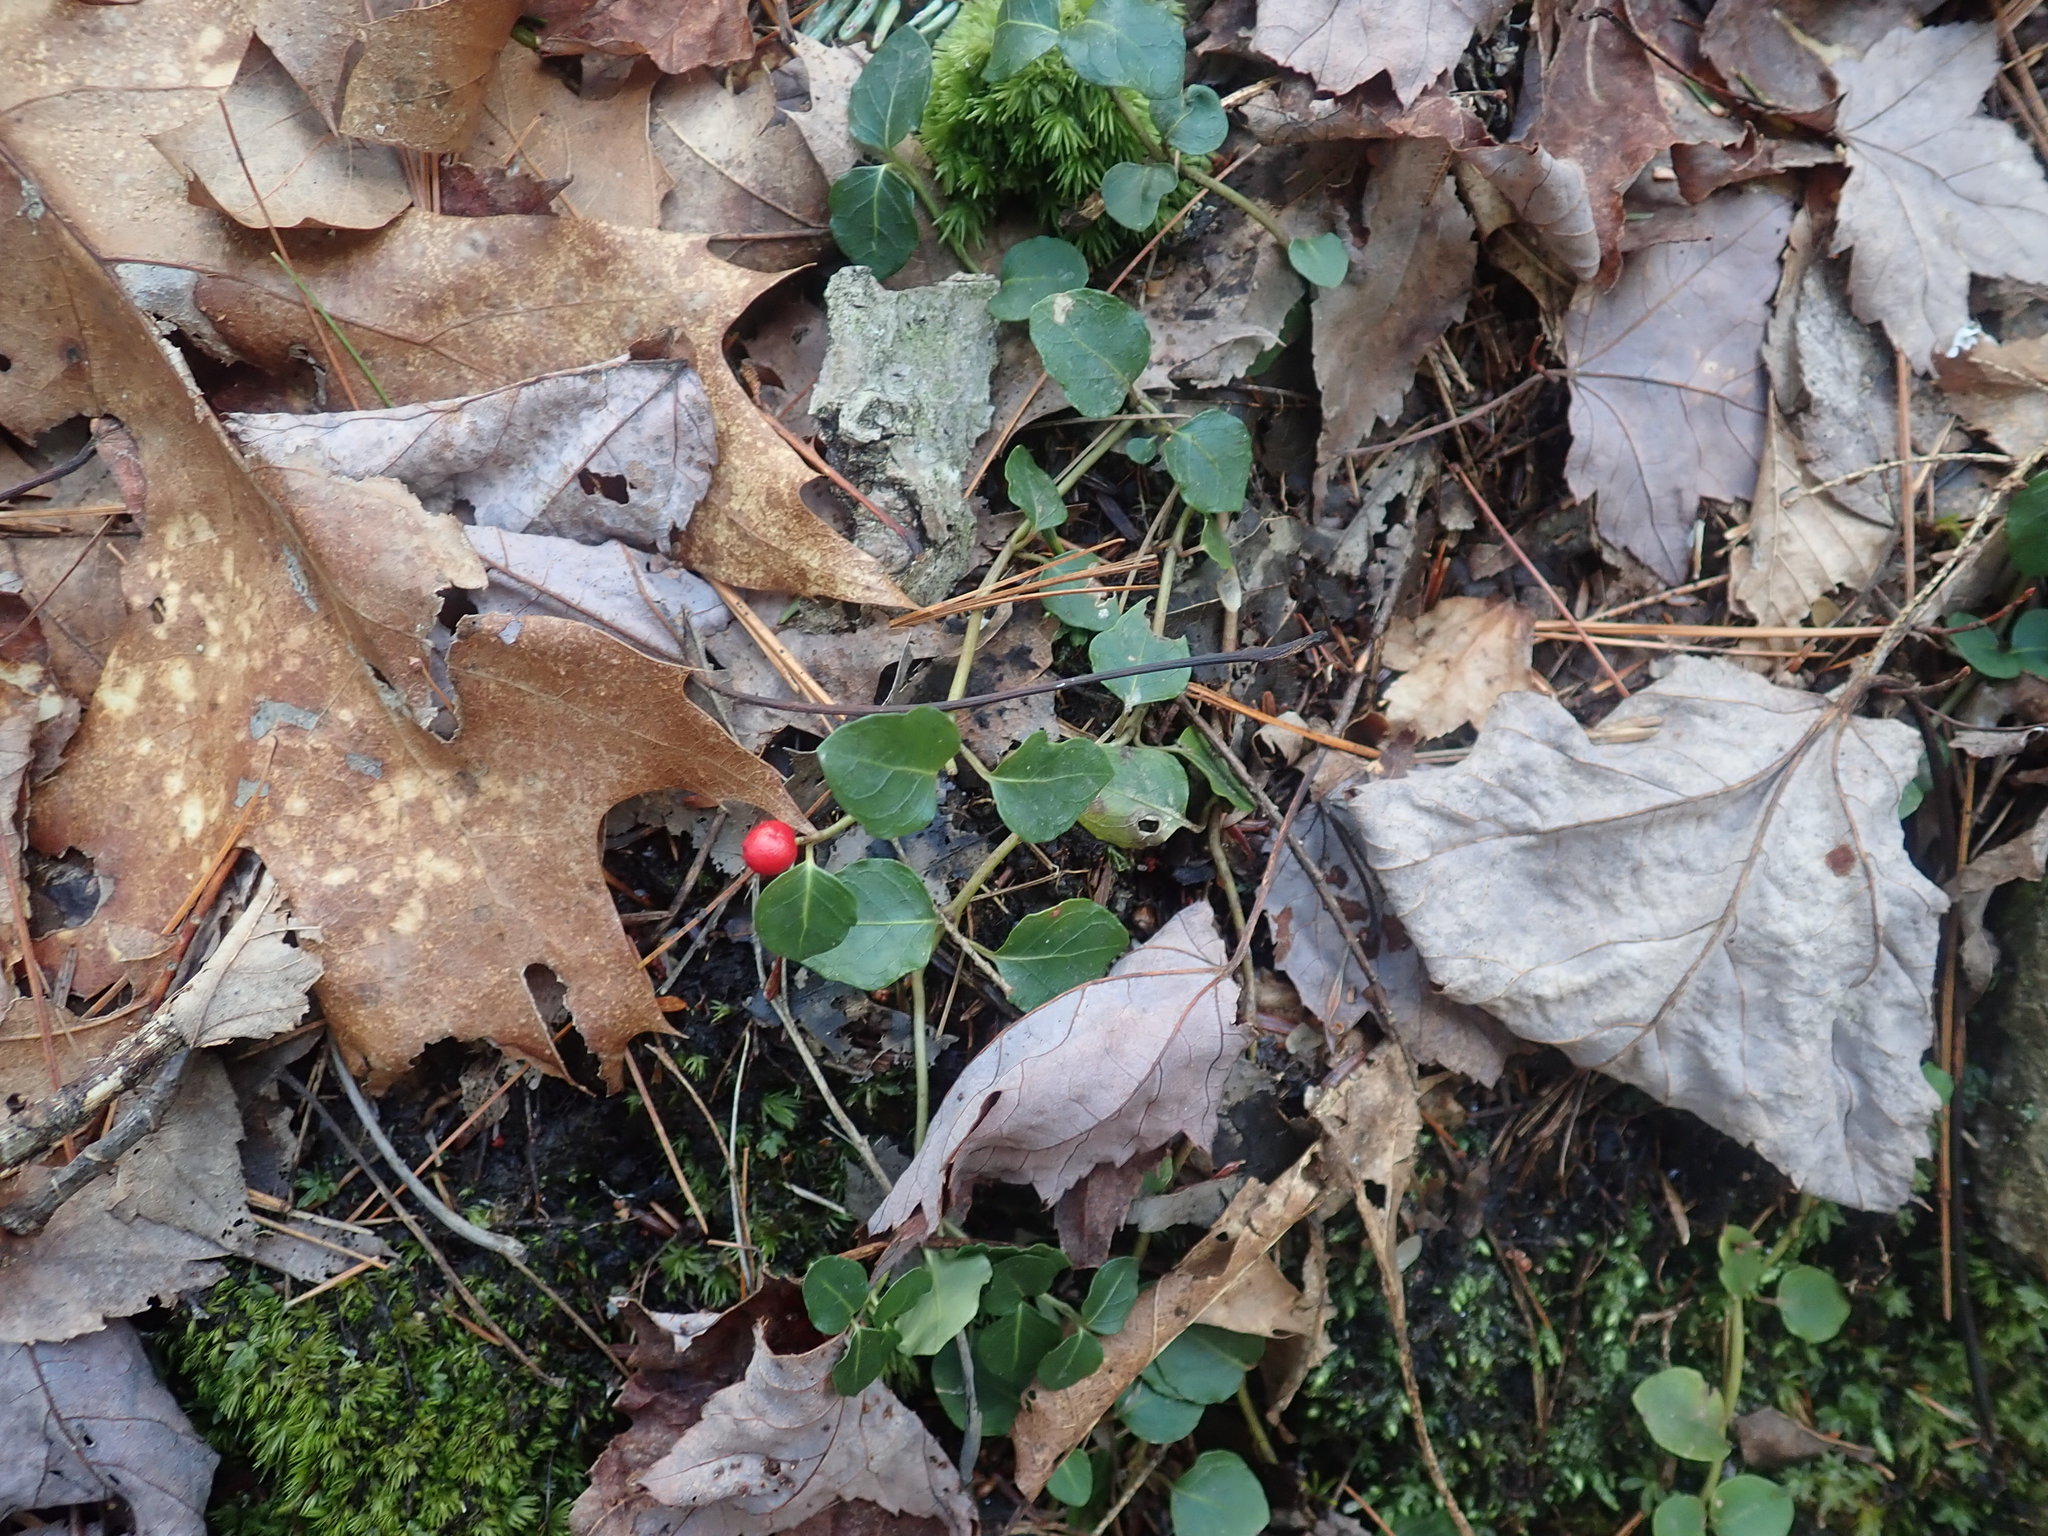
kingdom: Plantae
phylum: Tracheophyta
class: Magnoliopsida
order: Gentianales
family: Rubiaceae
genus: Mitchella
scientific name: Mitchella repens
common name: Partridge-berry
